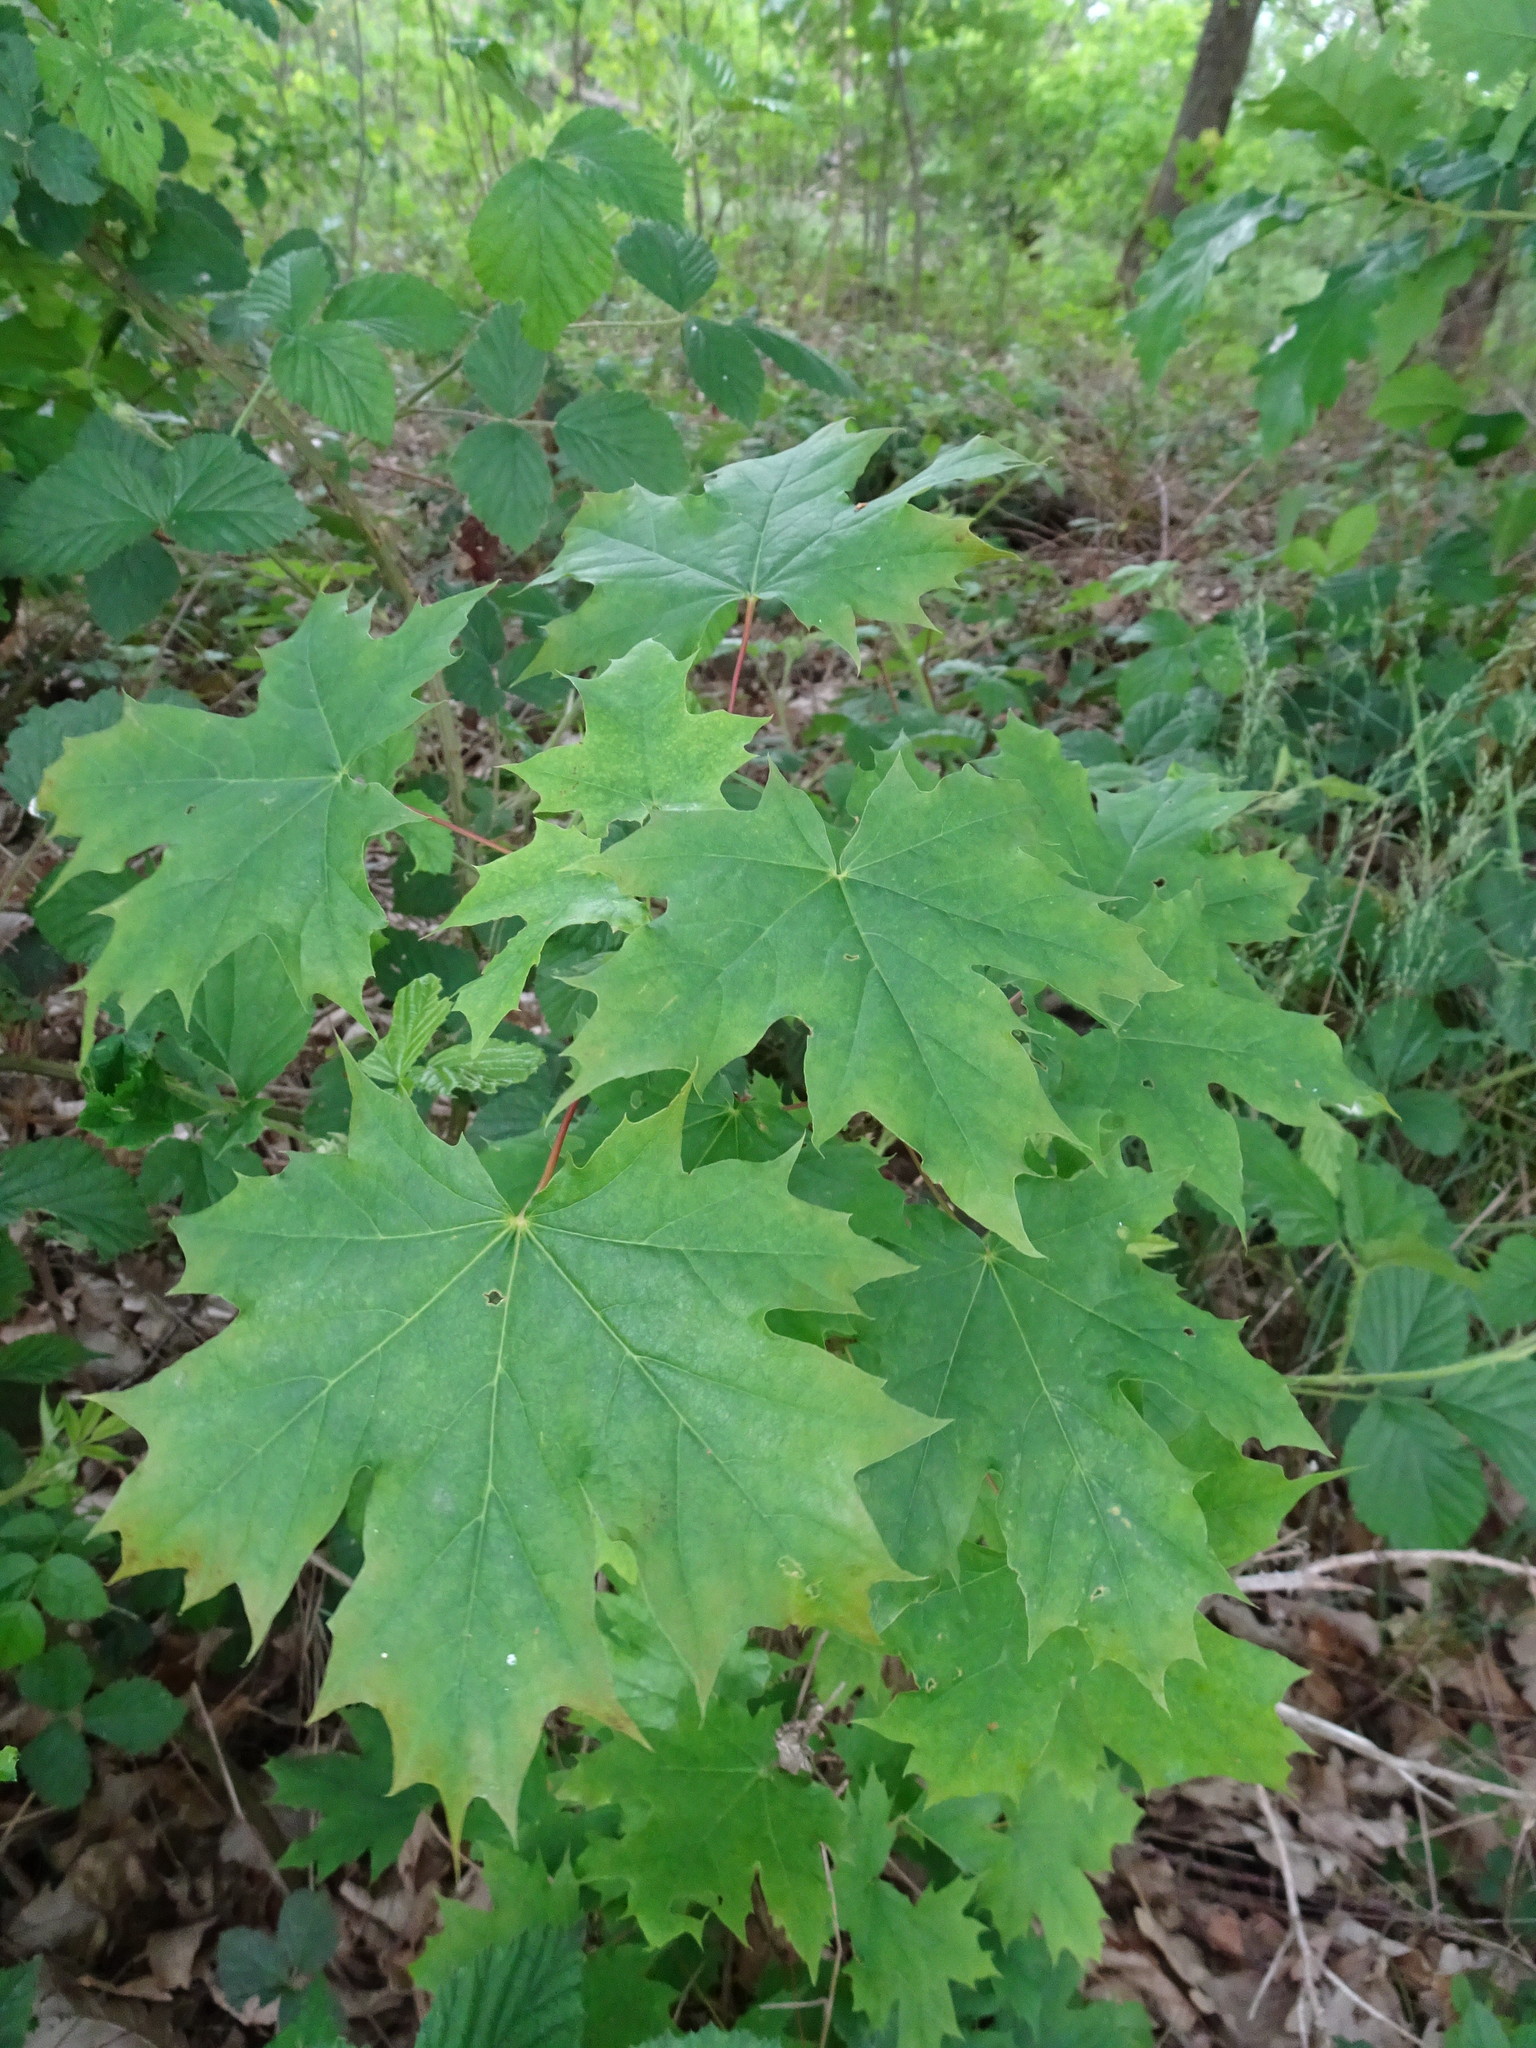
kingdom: Plantae
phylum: Tracheophyta
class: Magnoliopsida
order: Sapindales
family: Sapindaceae
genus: Acer
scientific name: Acer platanoides
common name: Norway maple
